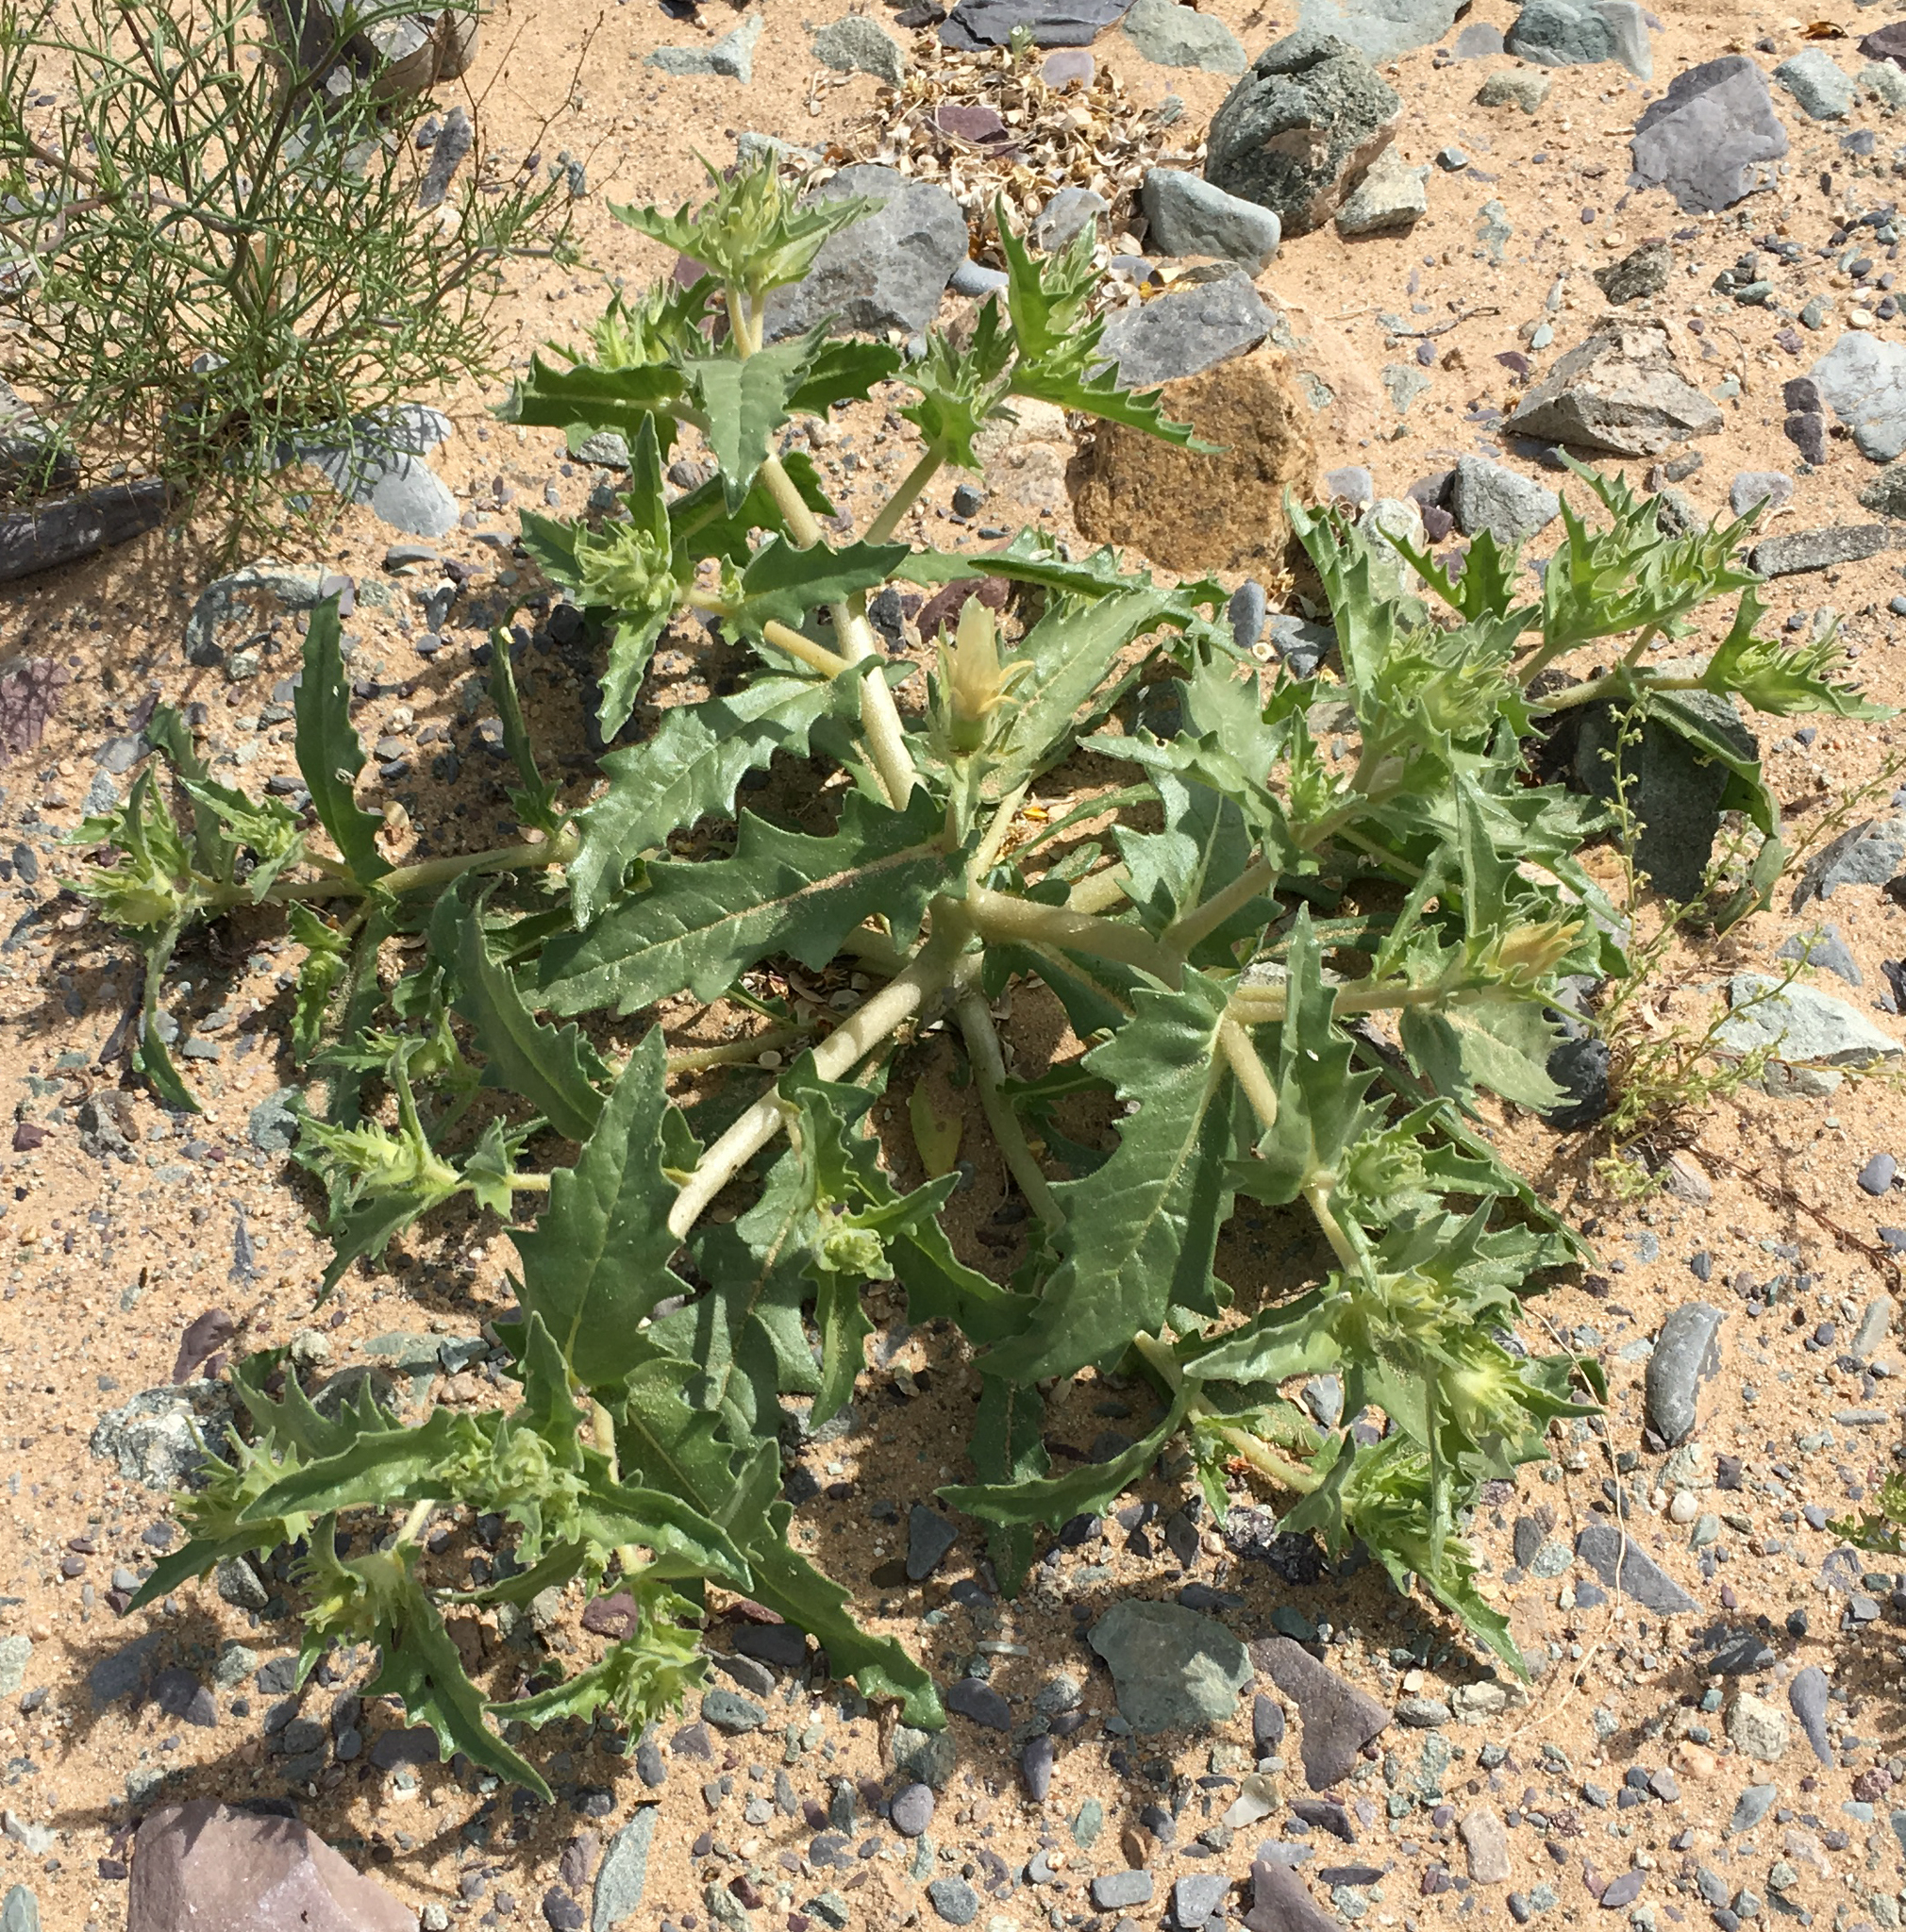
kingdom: Plantae
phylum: Tracheophyta
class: Magnoliopsida
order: Cornales
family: Loasaceae
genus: Mentzelia
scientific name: Mentzelia involucrata
